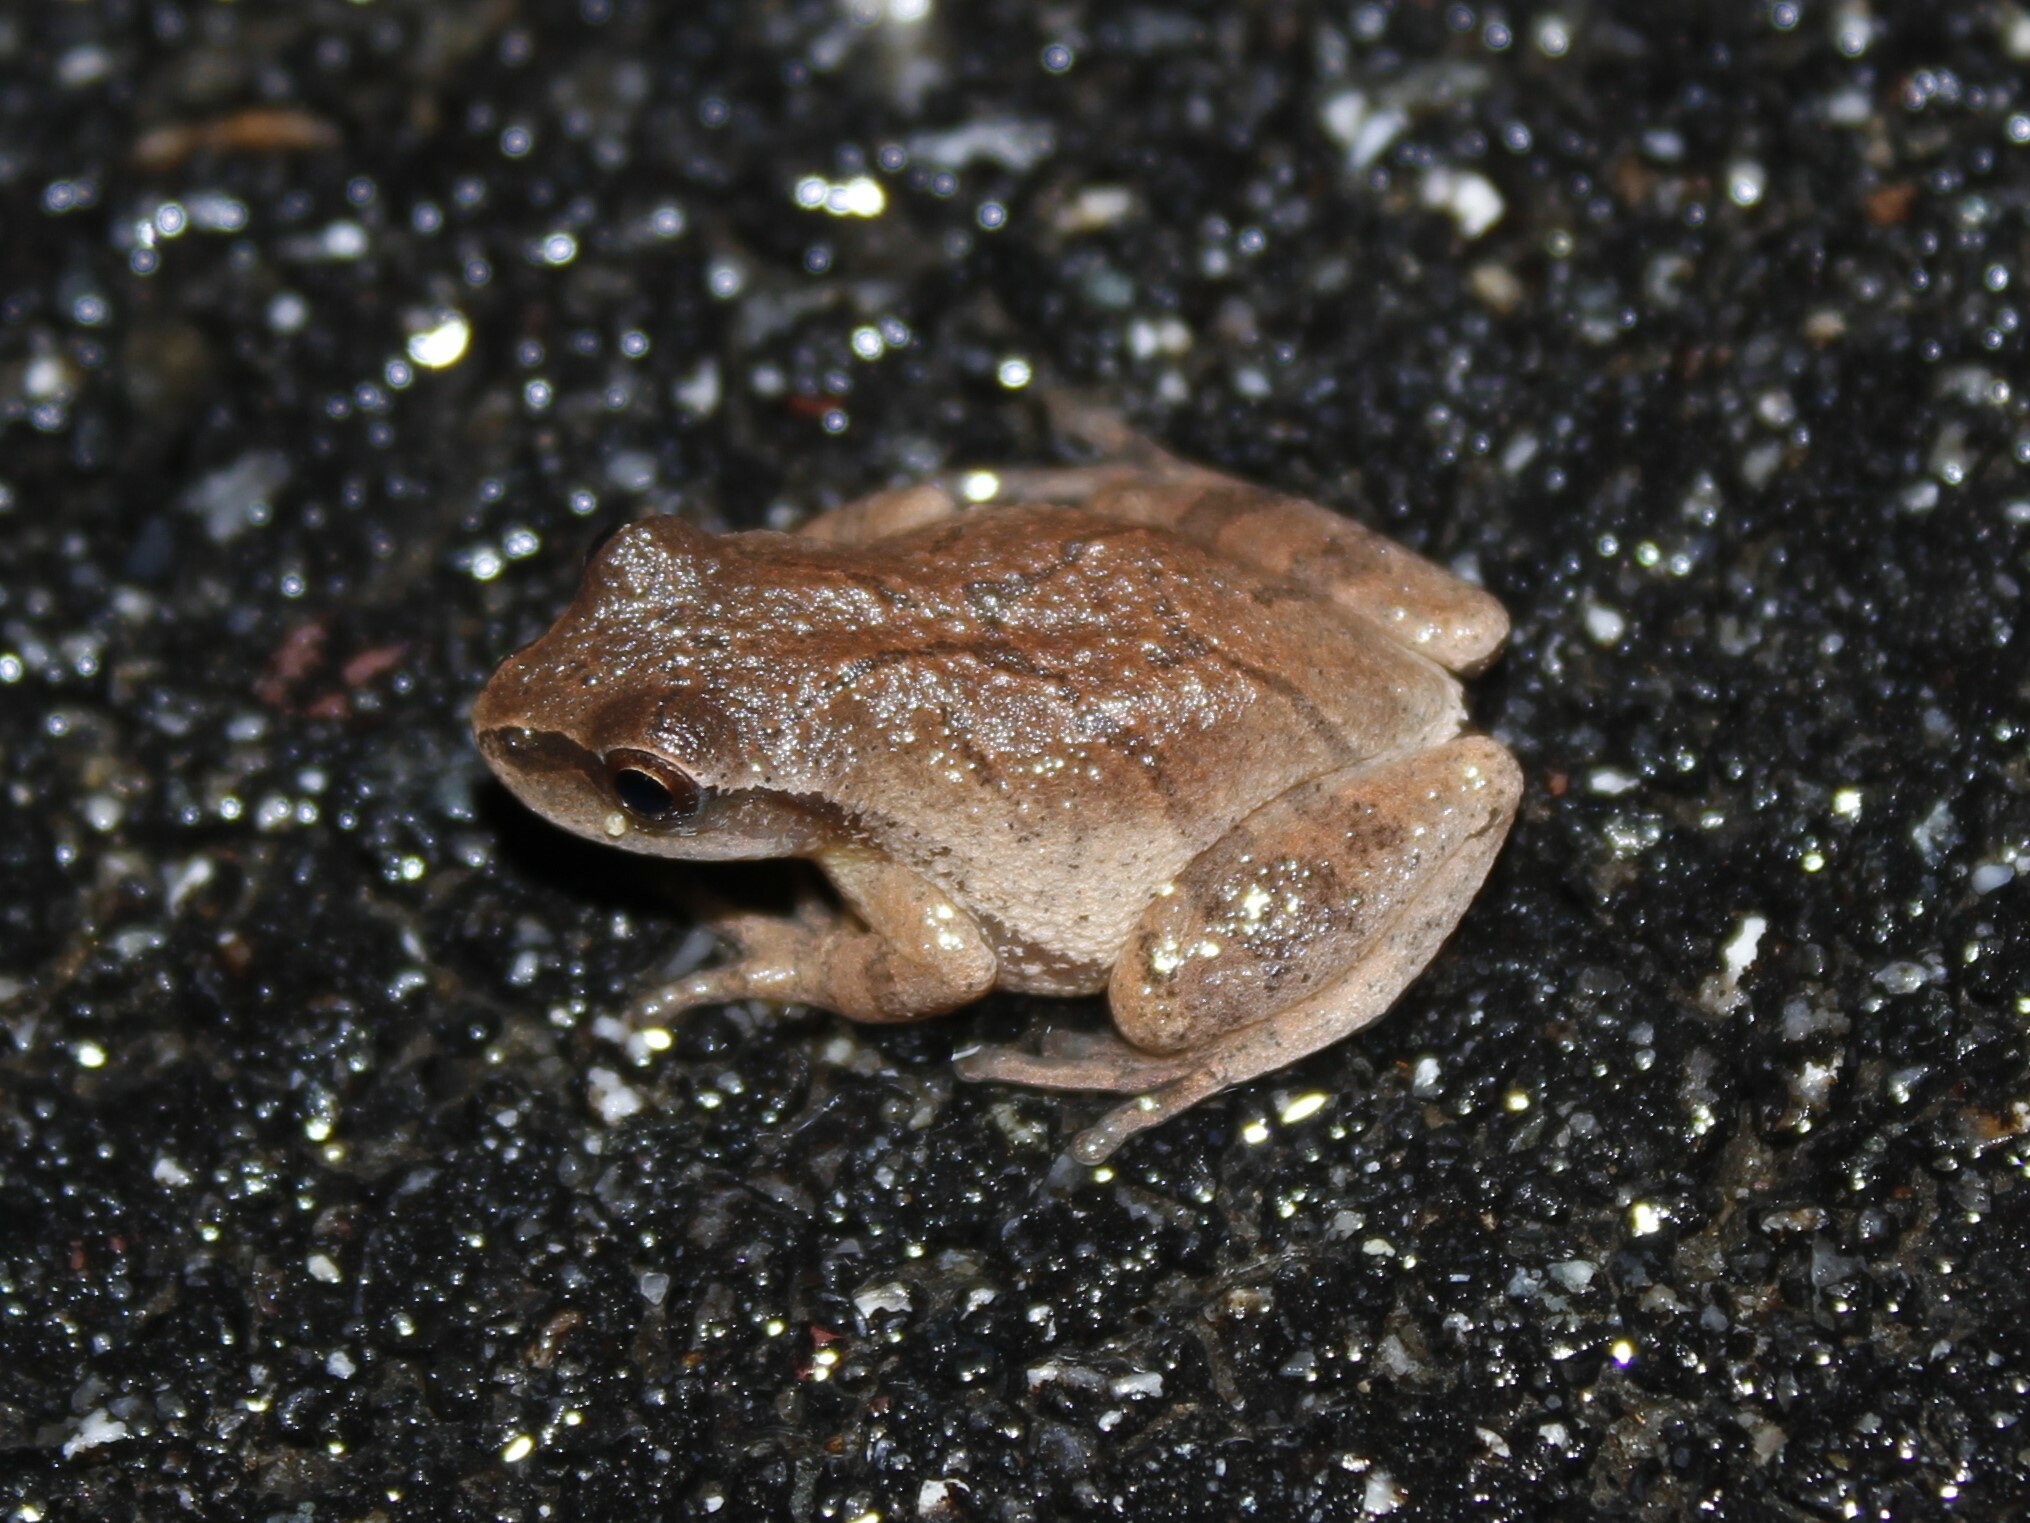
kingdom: Animalia
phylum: Chordata
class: Amphibia
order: Anura
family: Hylidae
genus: Pseudacris
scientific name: Pseudacris crucifer
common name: Spring peeper
